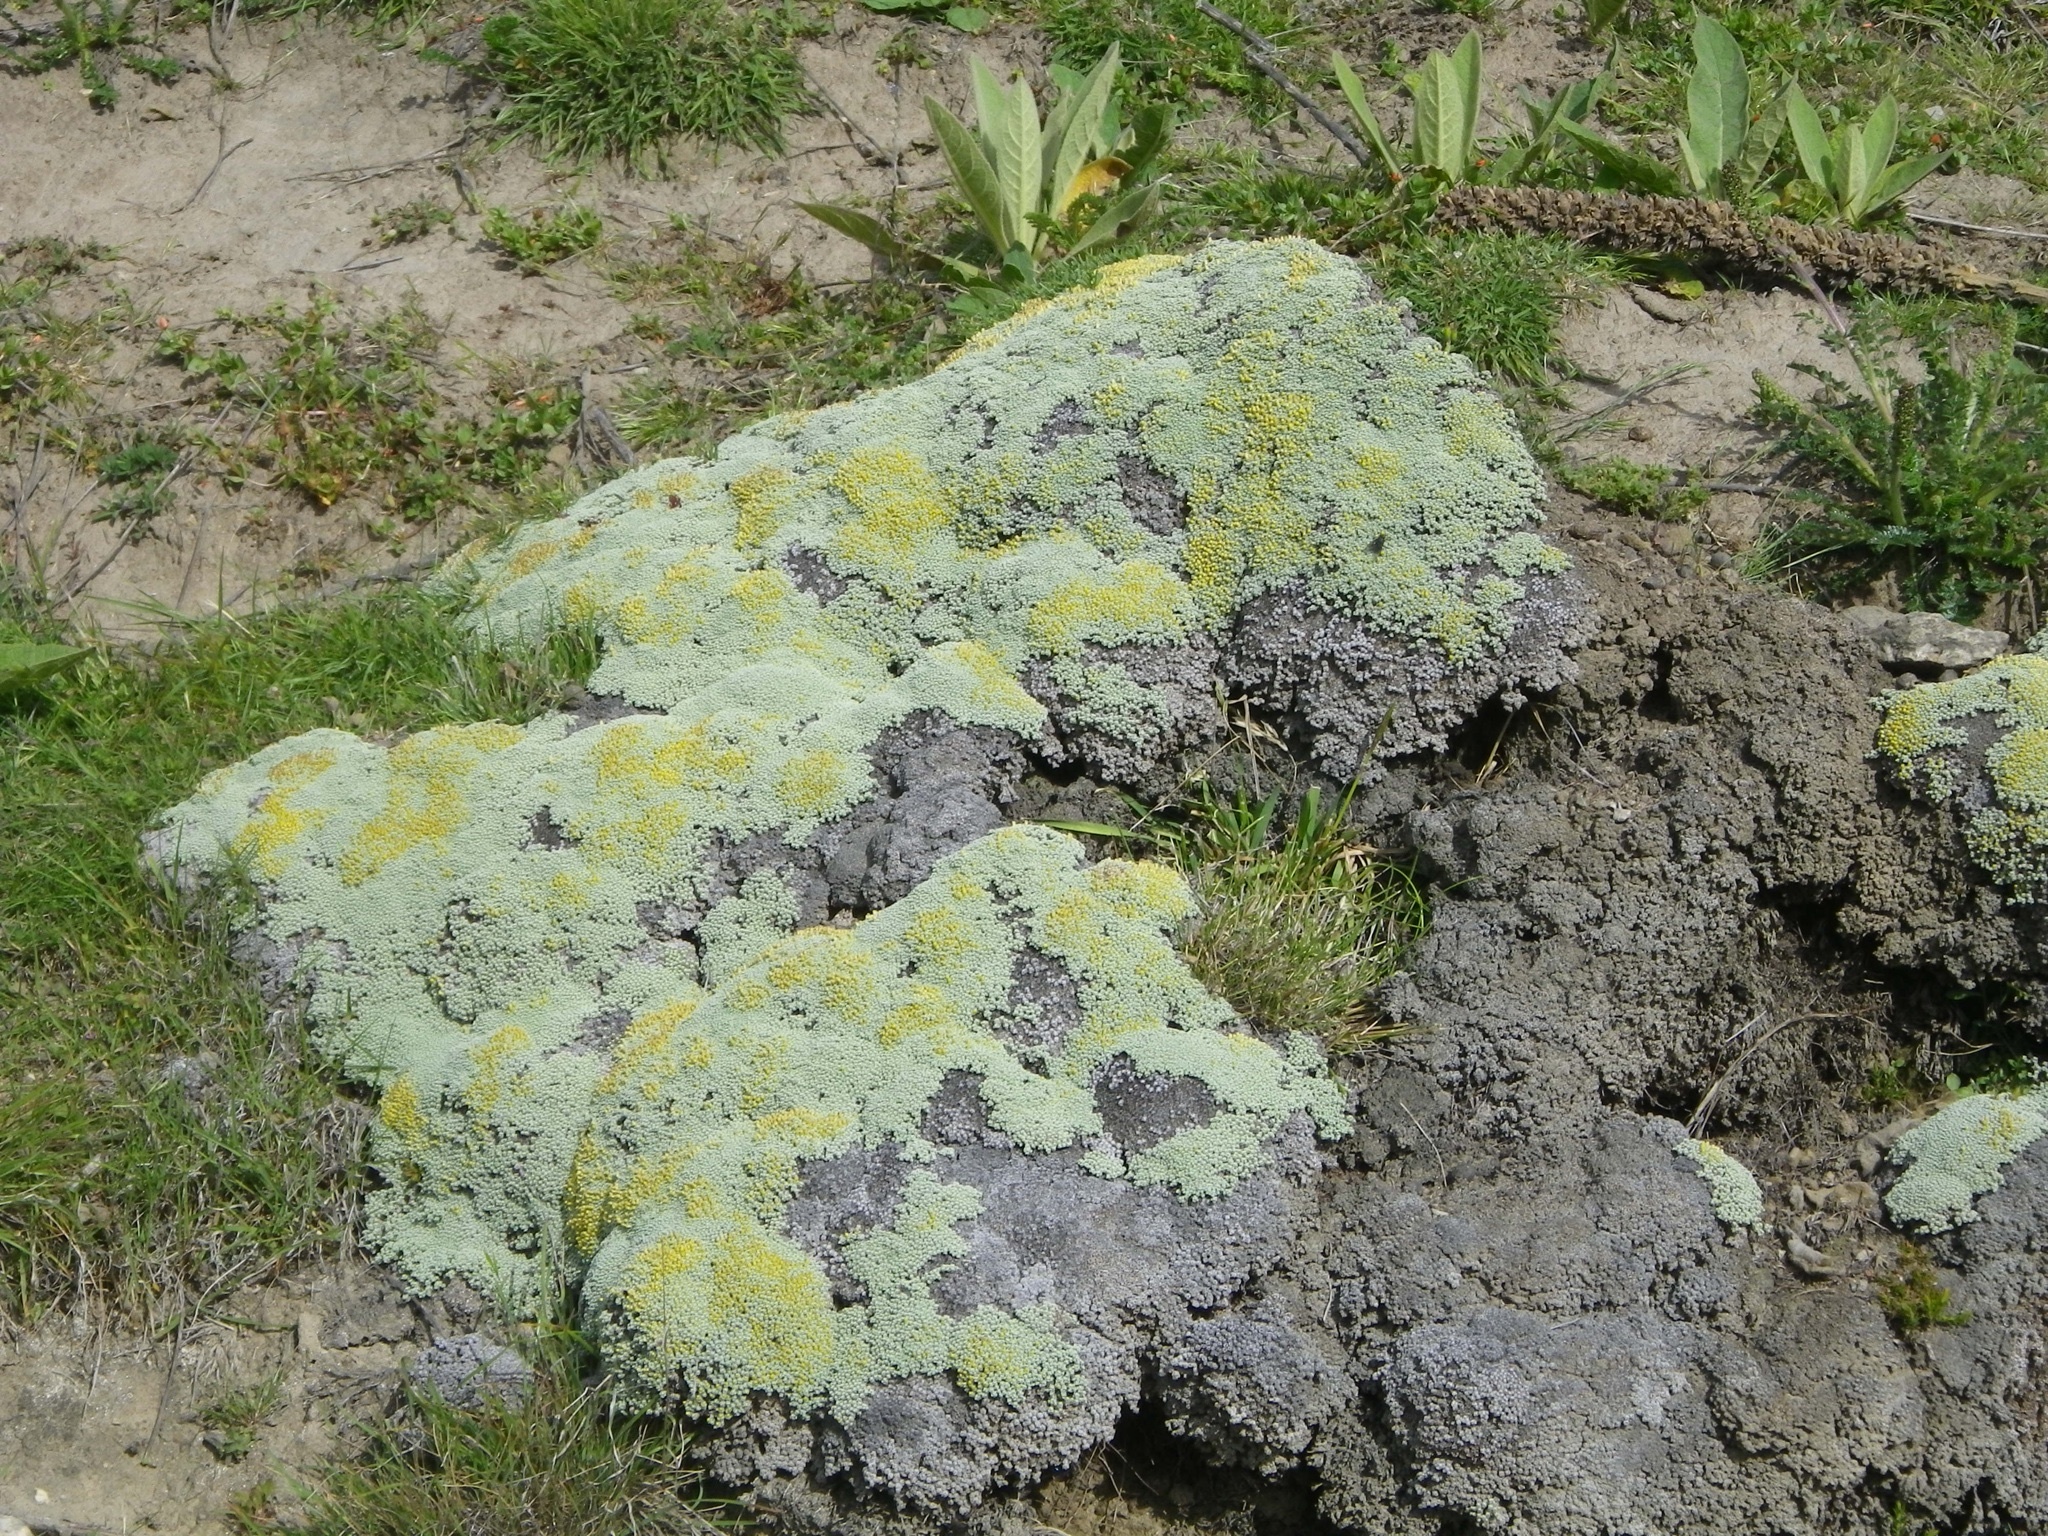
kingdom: Plantae
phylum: Tracheophyta
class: Magnoliopsida
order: Asterales
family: Asteraceae
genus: Raoulia
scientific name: Raoulia australis
